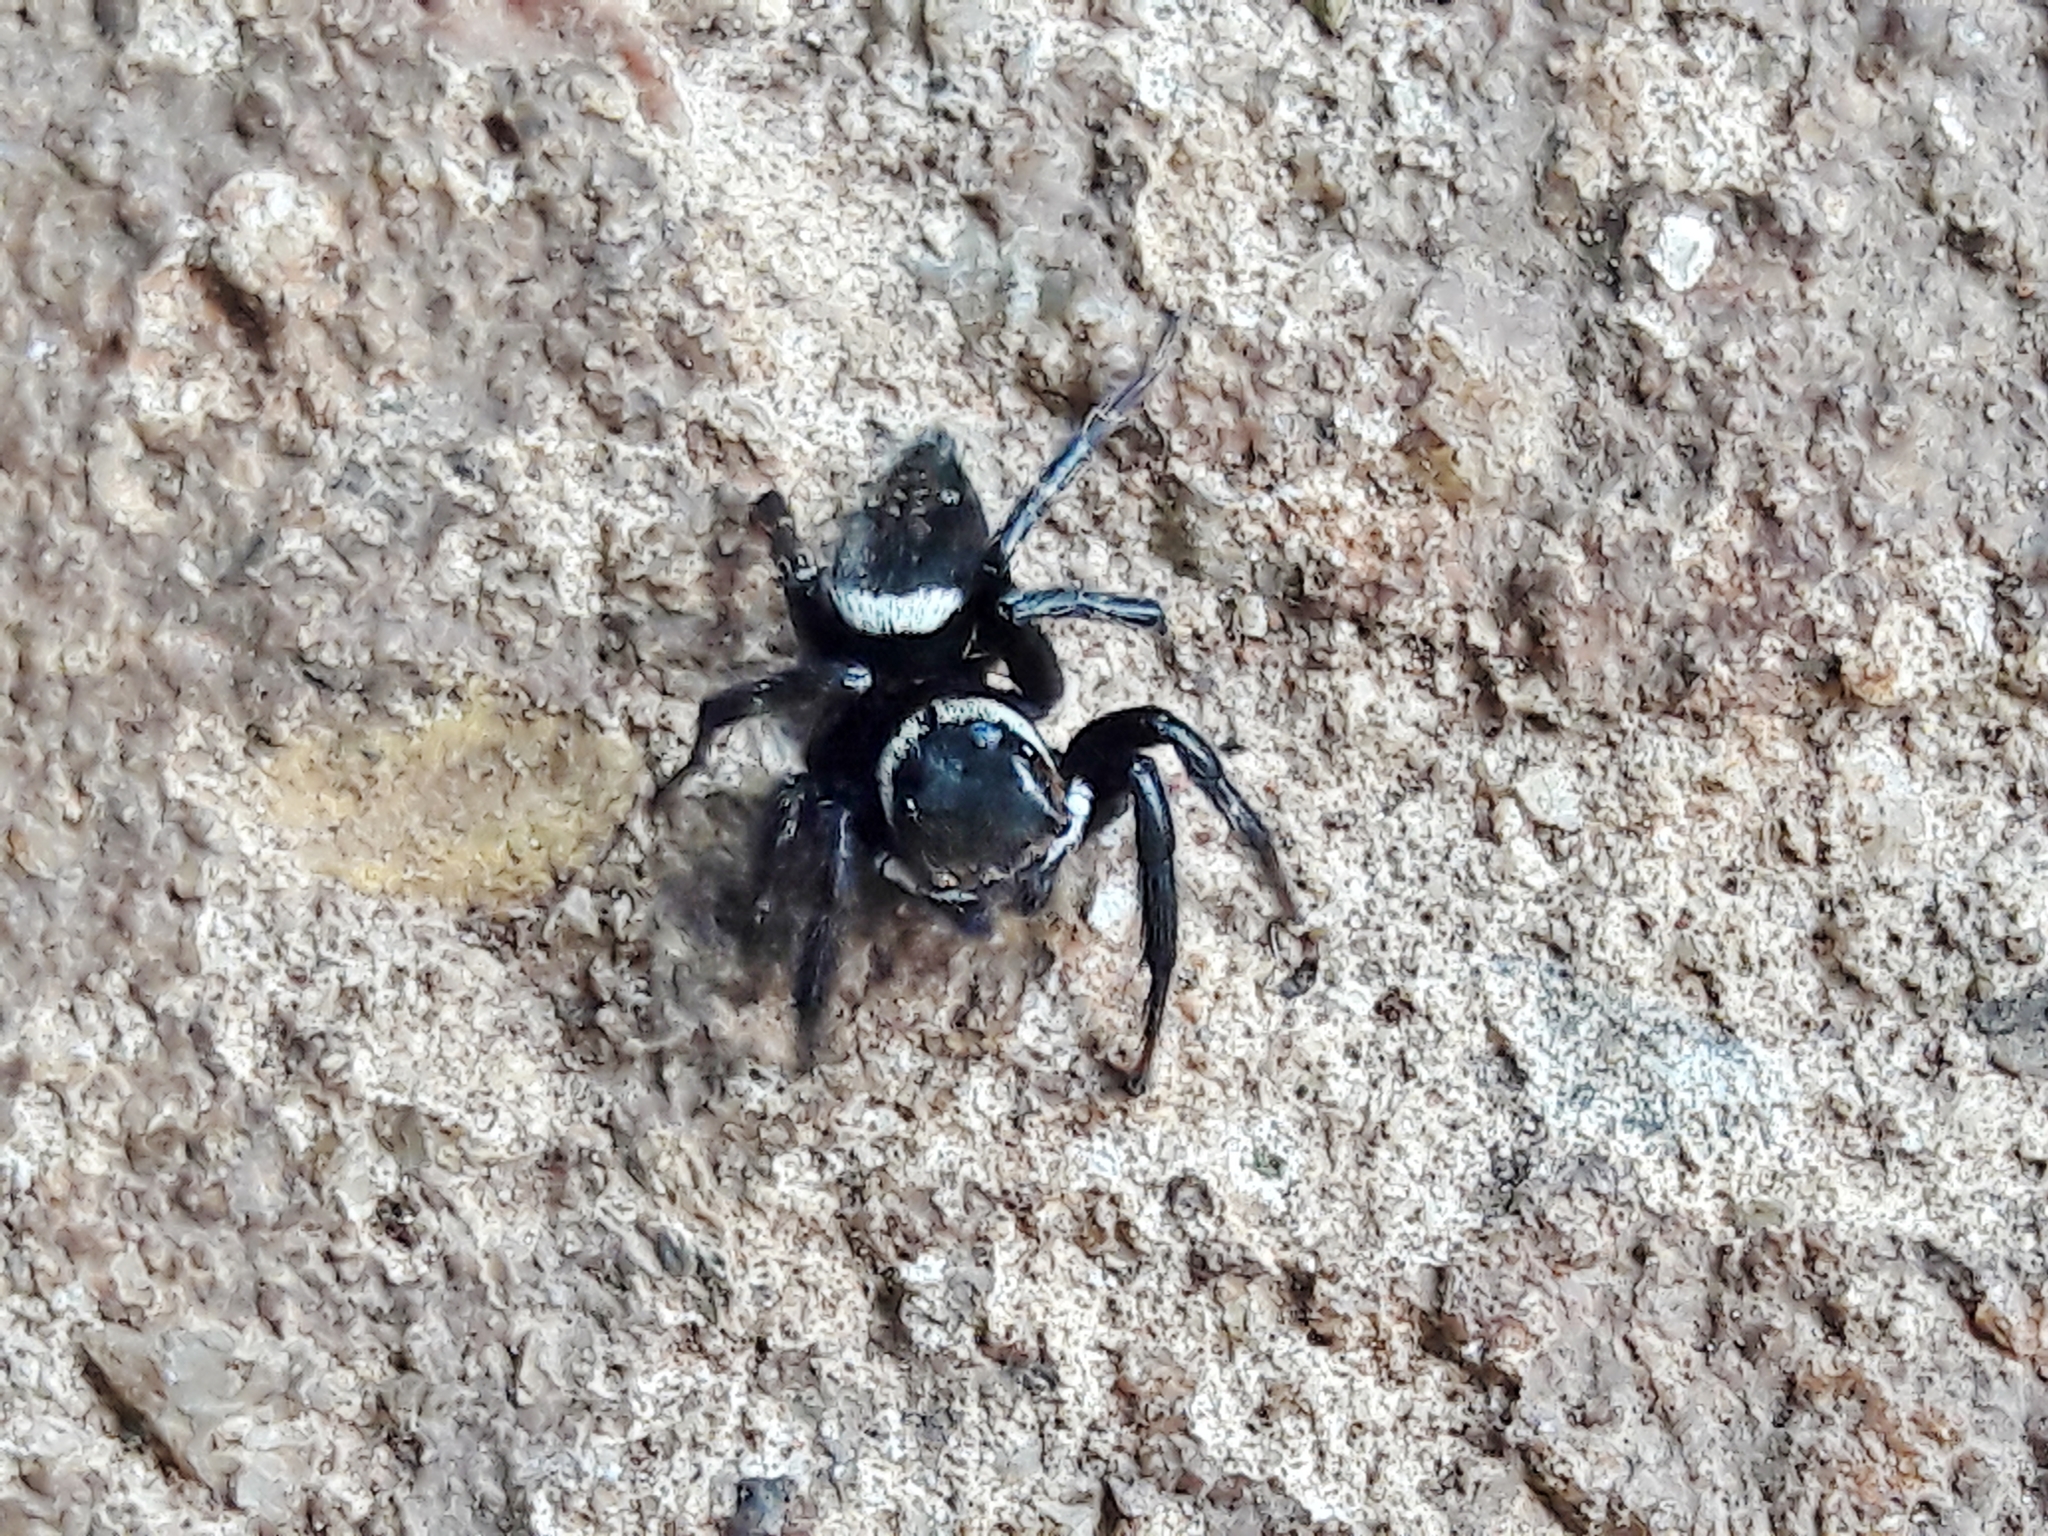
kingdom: Animalia
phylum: Arthropoda
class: Arachnida
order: Araneae
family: Salticidae
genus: Hasarius
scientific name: Hasarius adansoni
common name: Jumping spider
